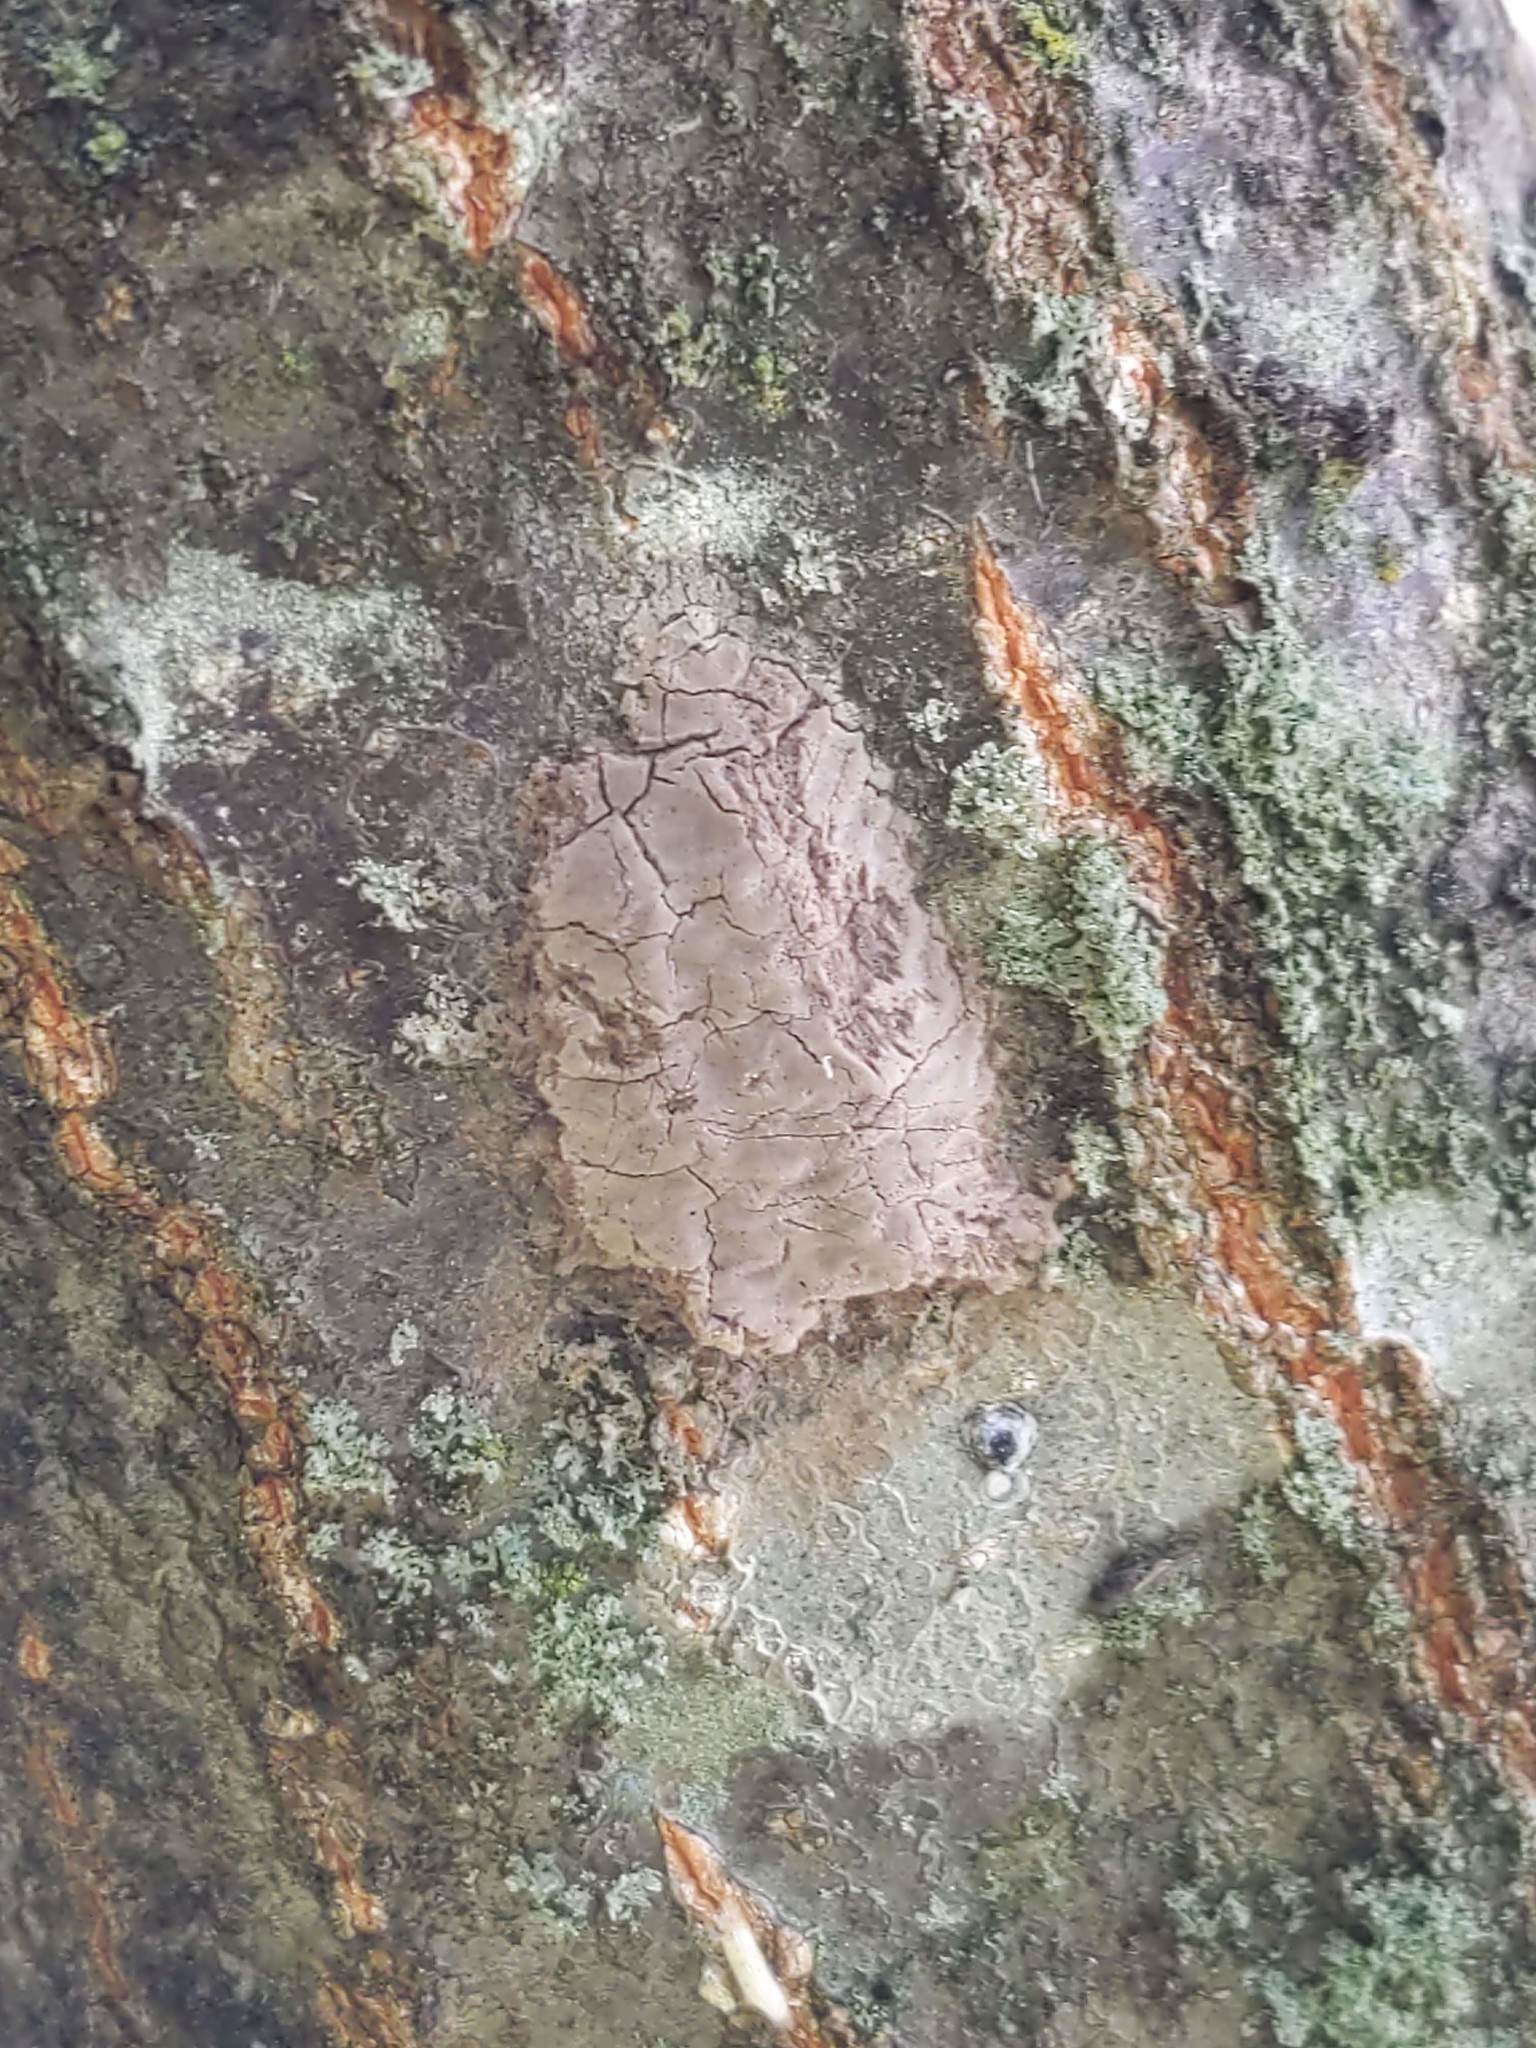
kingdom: Animalia
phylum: Arthropoda
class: Insecta
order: Hemiptera
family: Fulgoridae
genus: Lycorma
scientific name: Lycorma delicatula
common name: Spotted lanternfly
